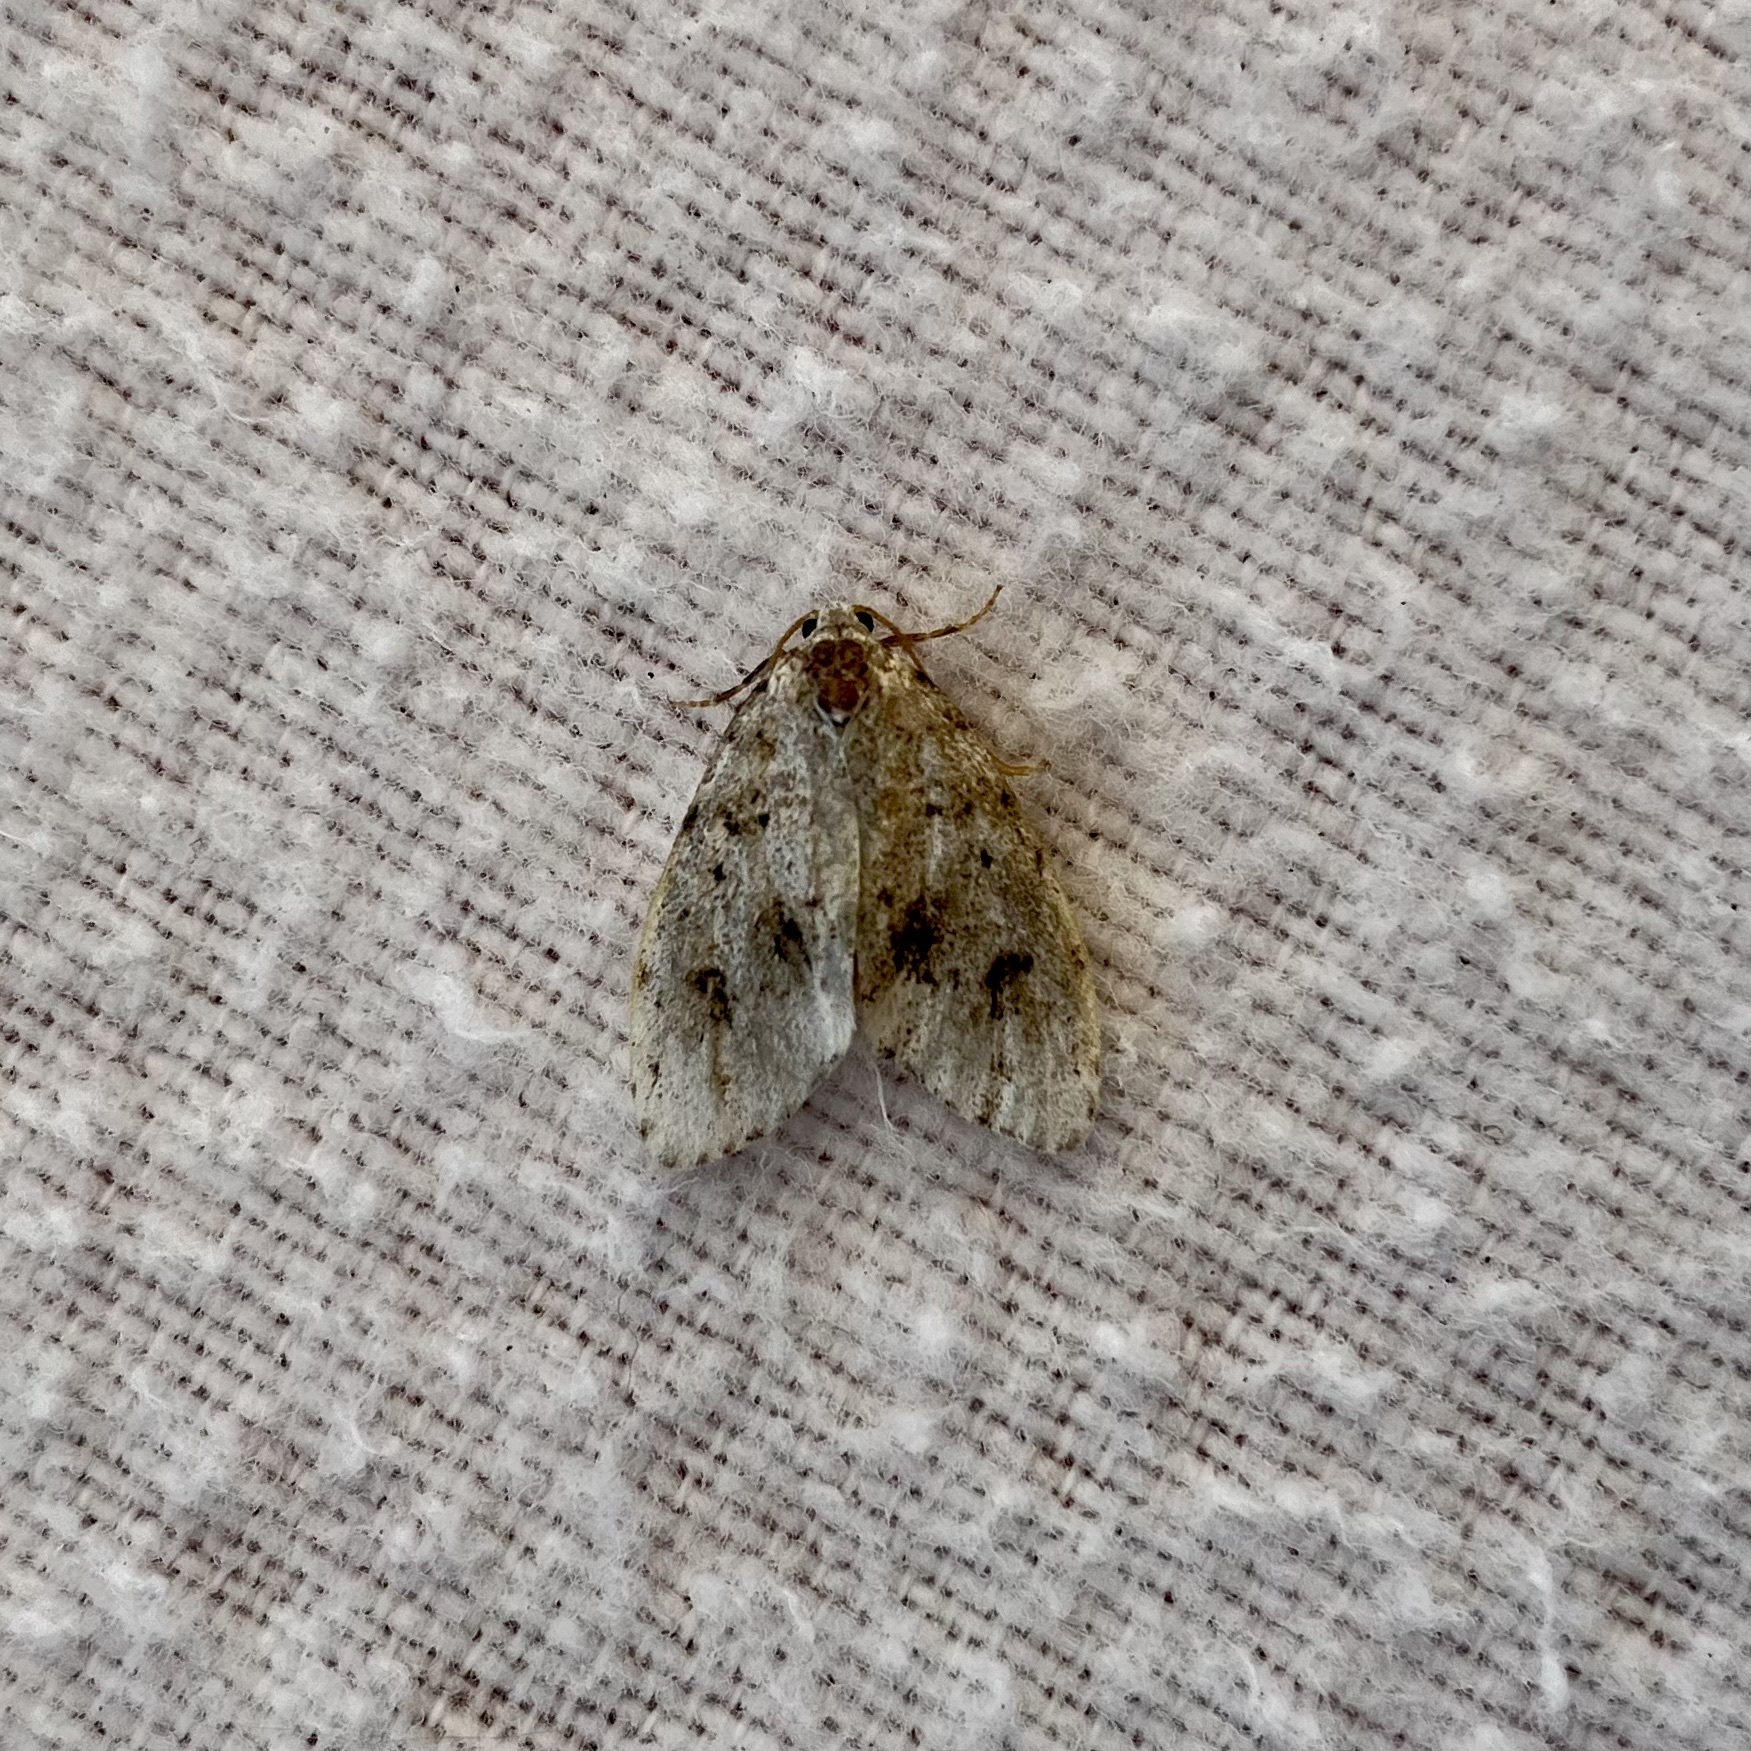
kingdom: Animalia
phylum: Arthropoda
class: Insecta
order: Lepidoptera
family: Erebidae
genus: Clemensia
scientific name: Clemensia umbrata
